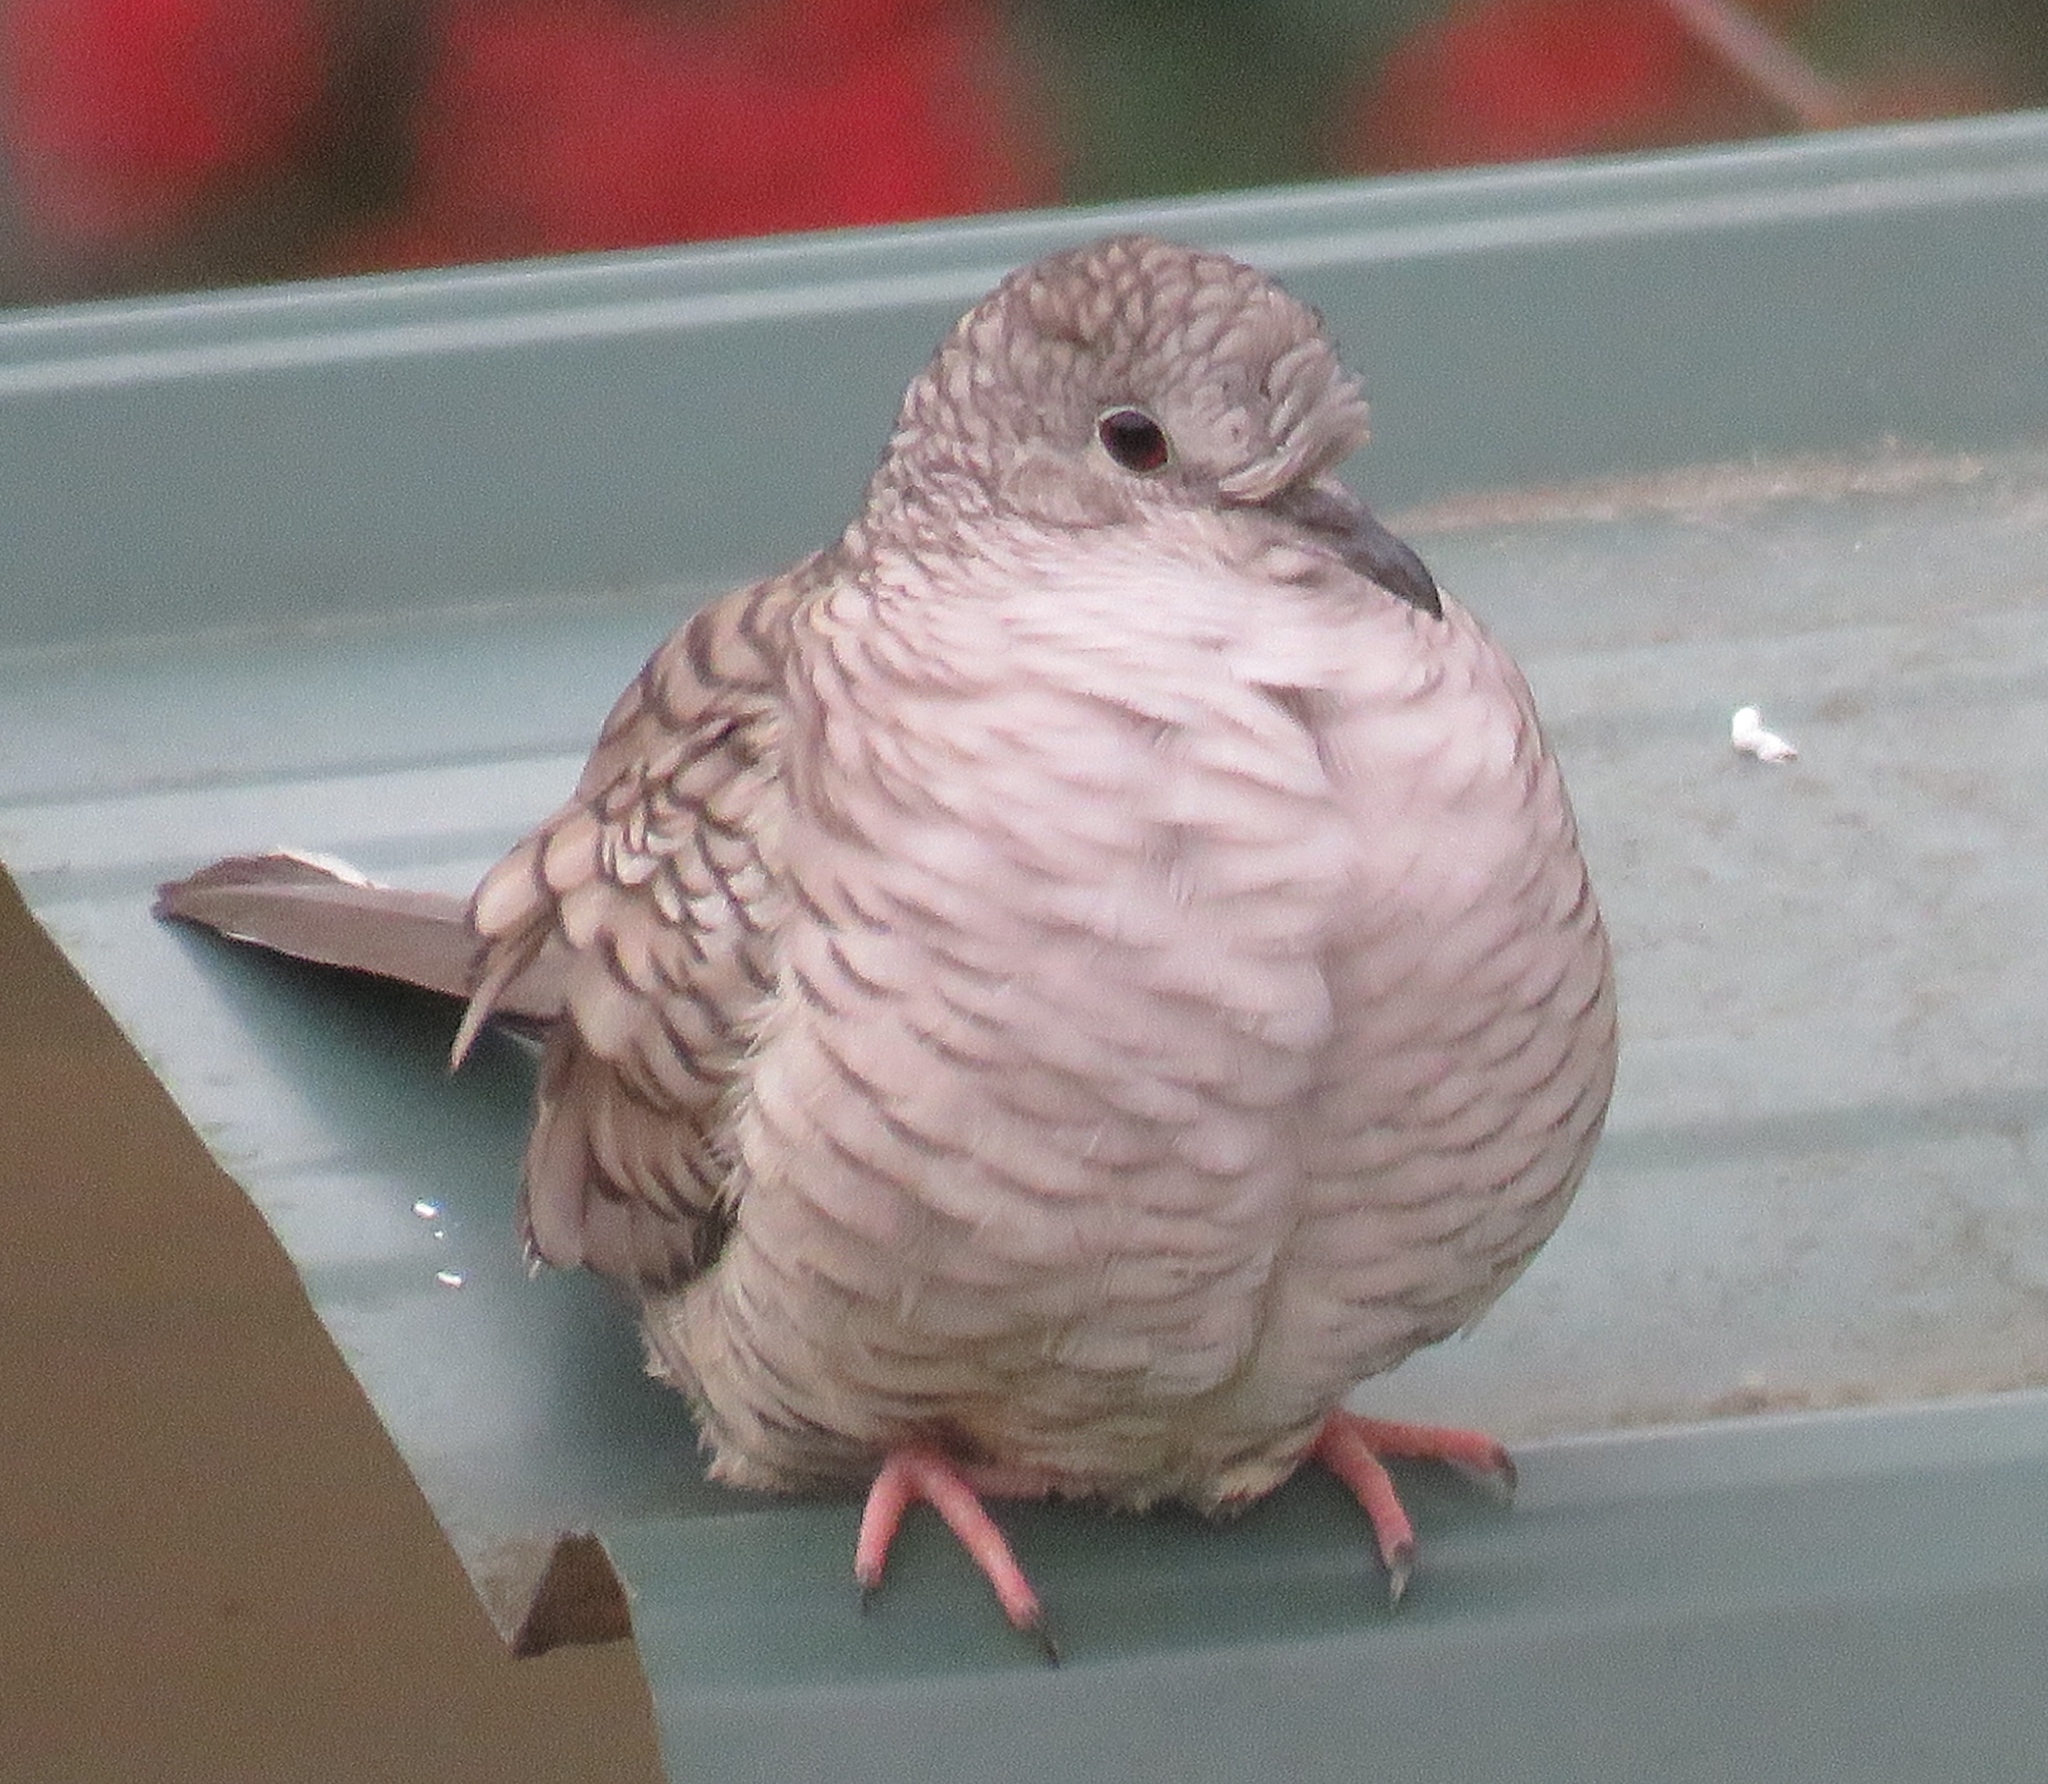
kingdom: Animalia
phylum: Chordata
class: Aves
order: Columbiformes
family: Columbidae
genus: Columbina
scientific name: Columbina inca
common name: Inca dove
